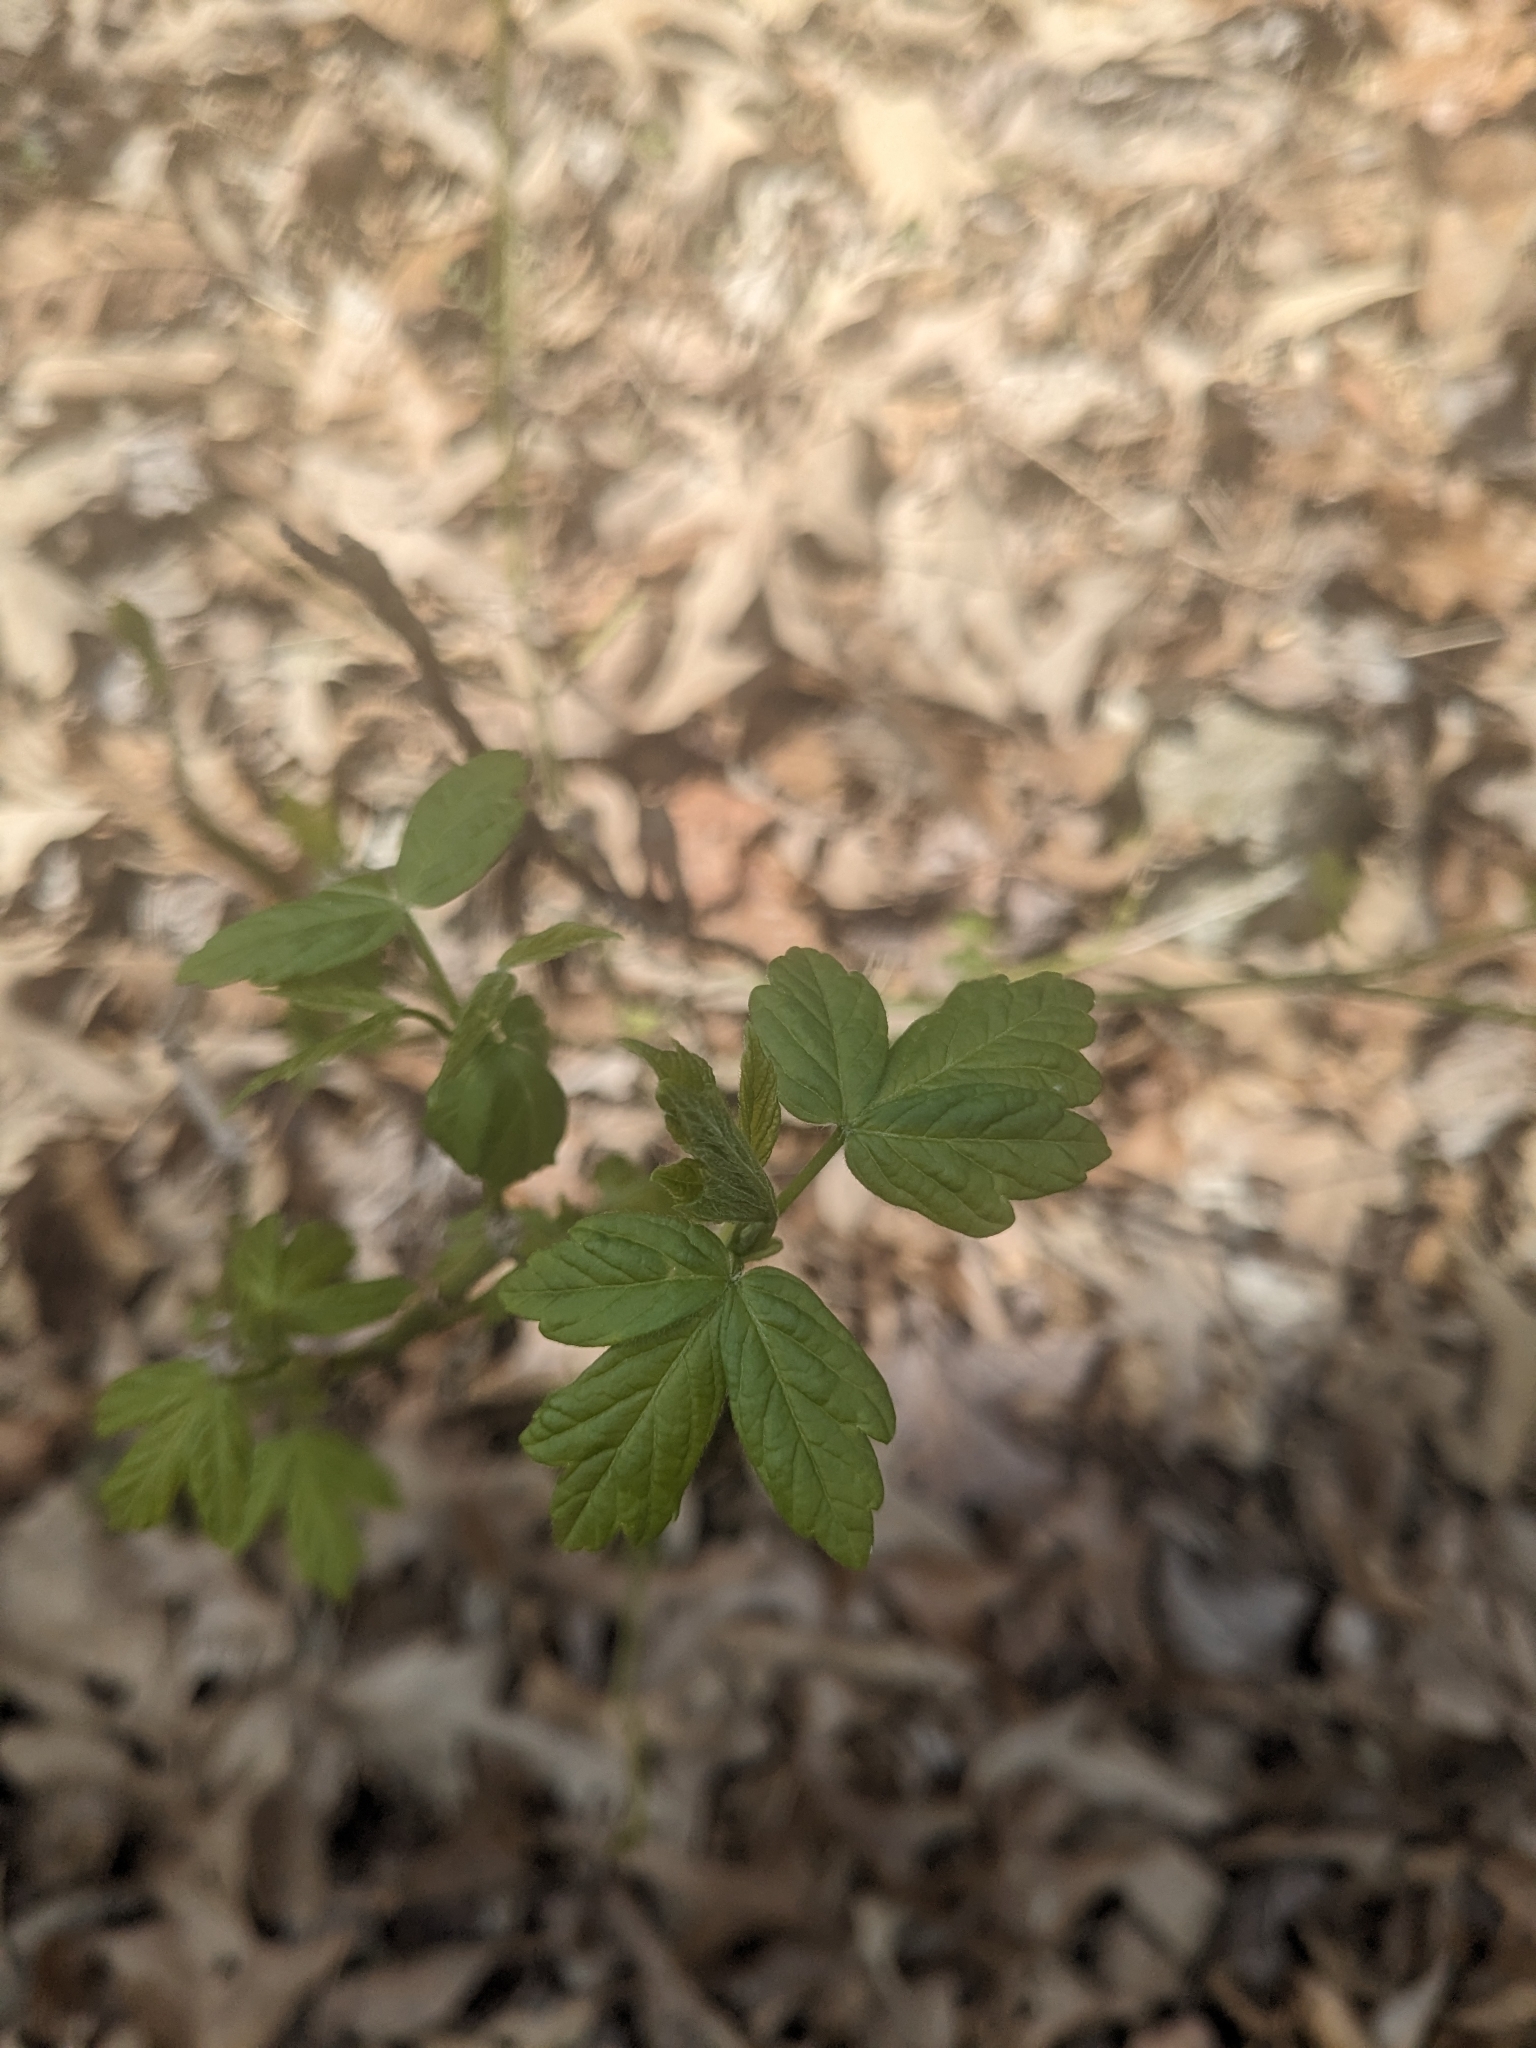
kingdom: Plantae
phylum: Tracheophyta
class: Magnoliopsida
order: Sapindales
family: Sapindaceae
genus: Acer
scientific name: Acer negundo
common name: Ashleaf maple
